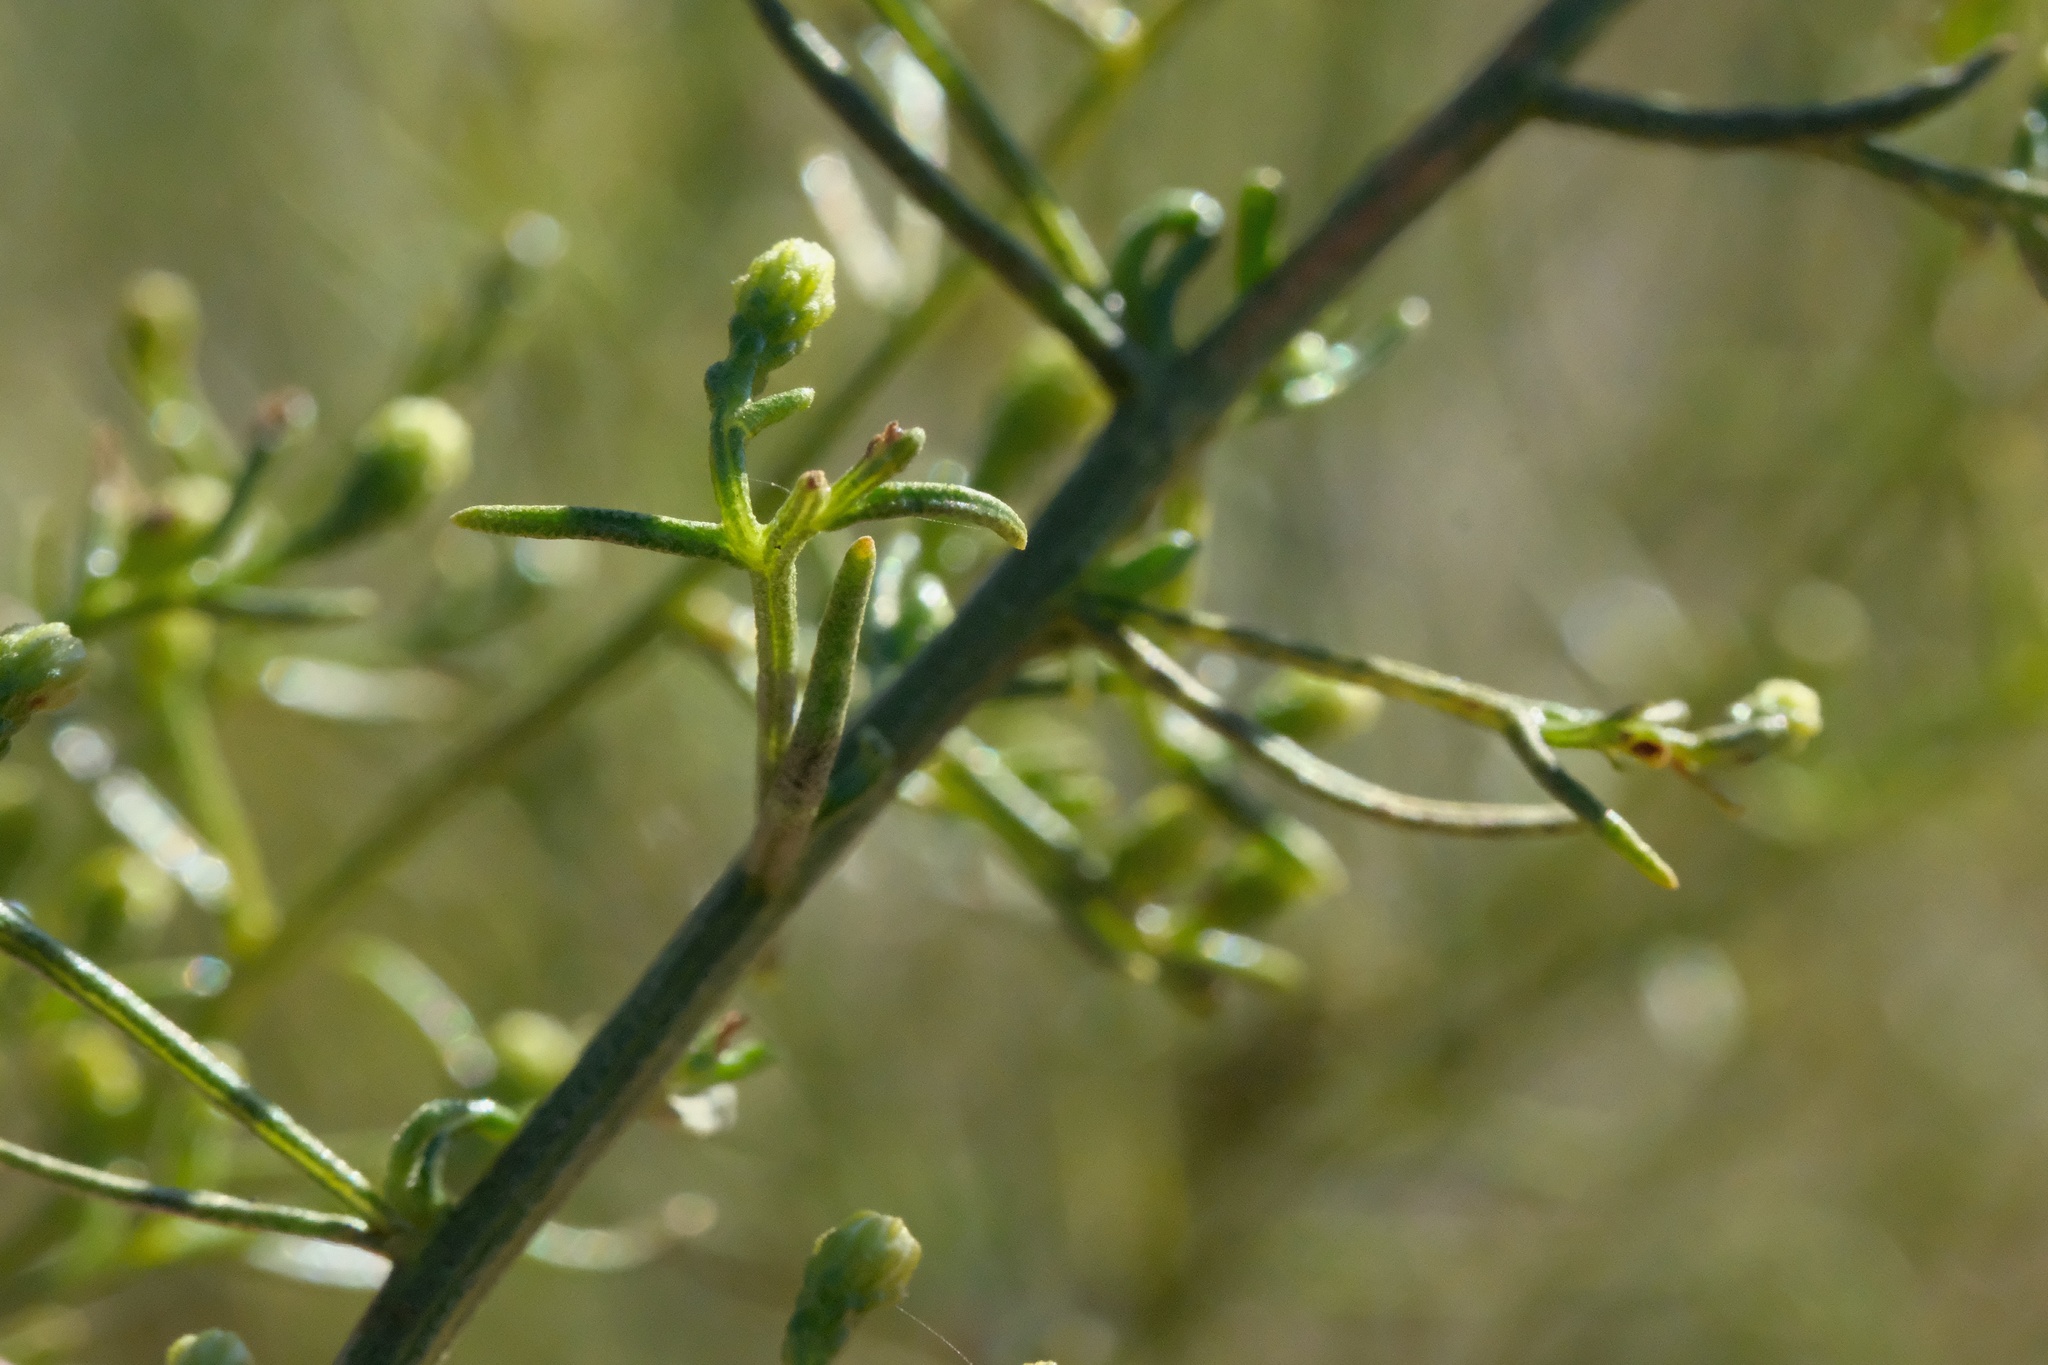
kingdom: Plantae
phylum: Tracheophyta
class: Magnoliopsida
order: Asterales
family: Asteraceae
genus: Ericameria
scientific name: Ericameria palmeri
